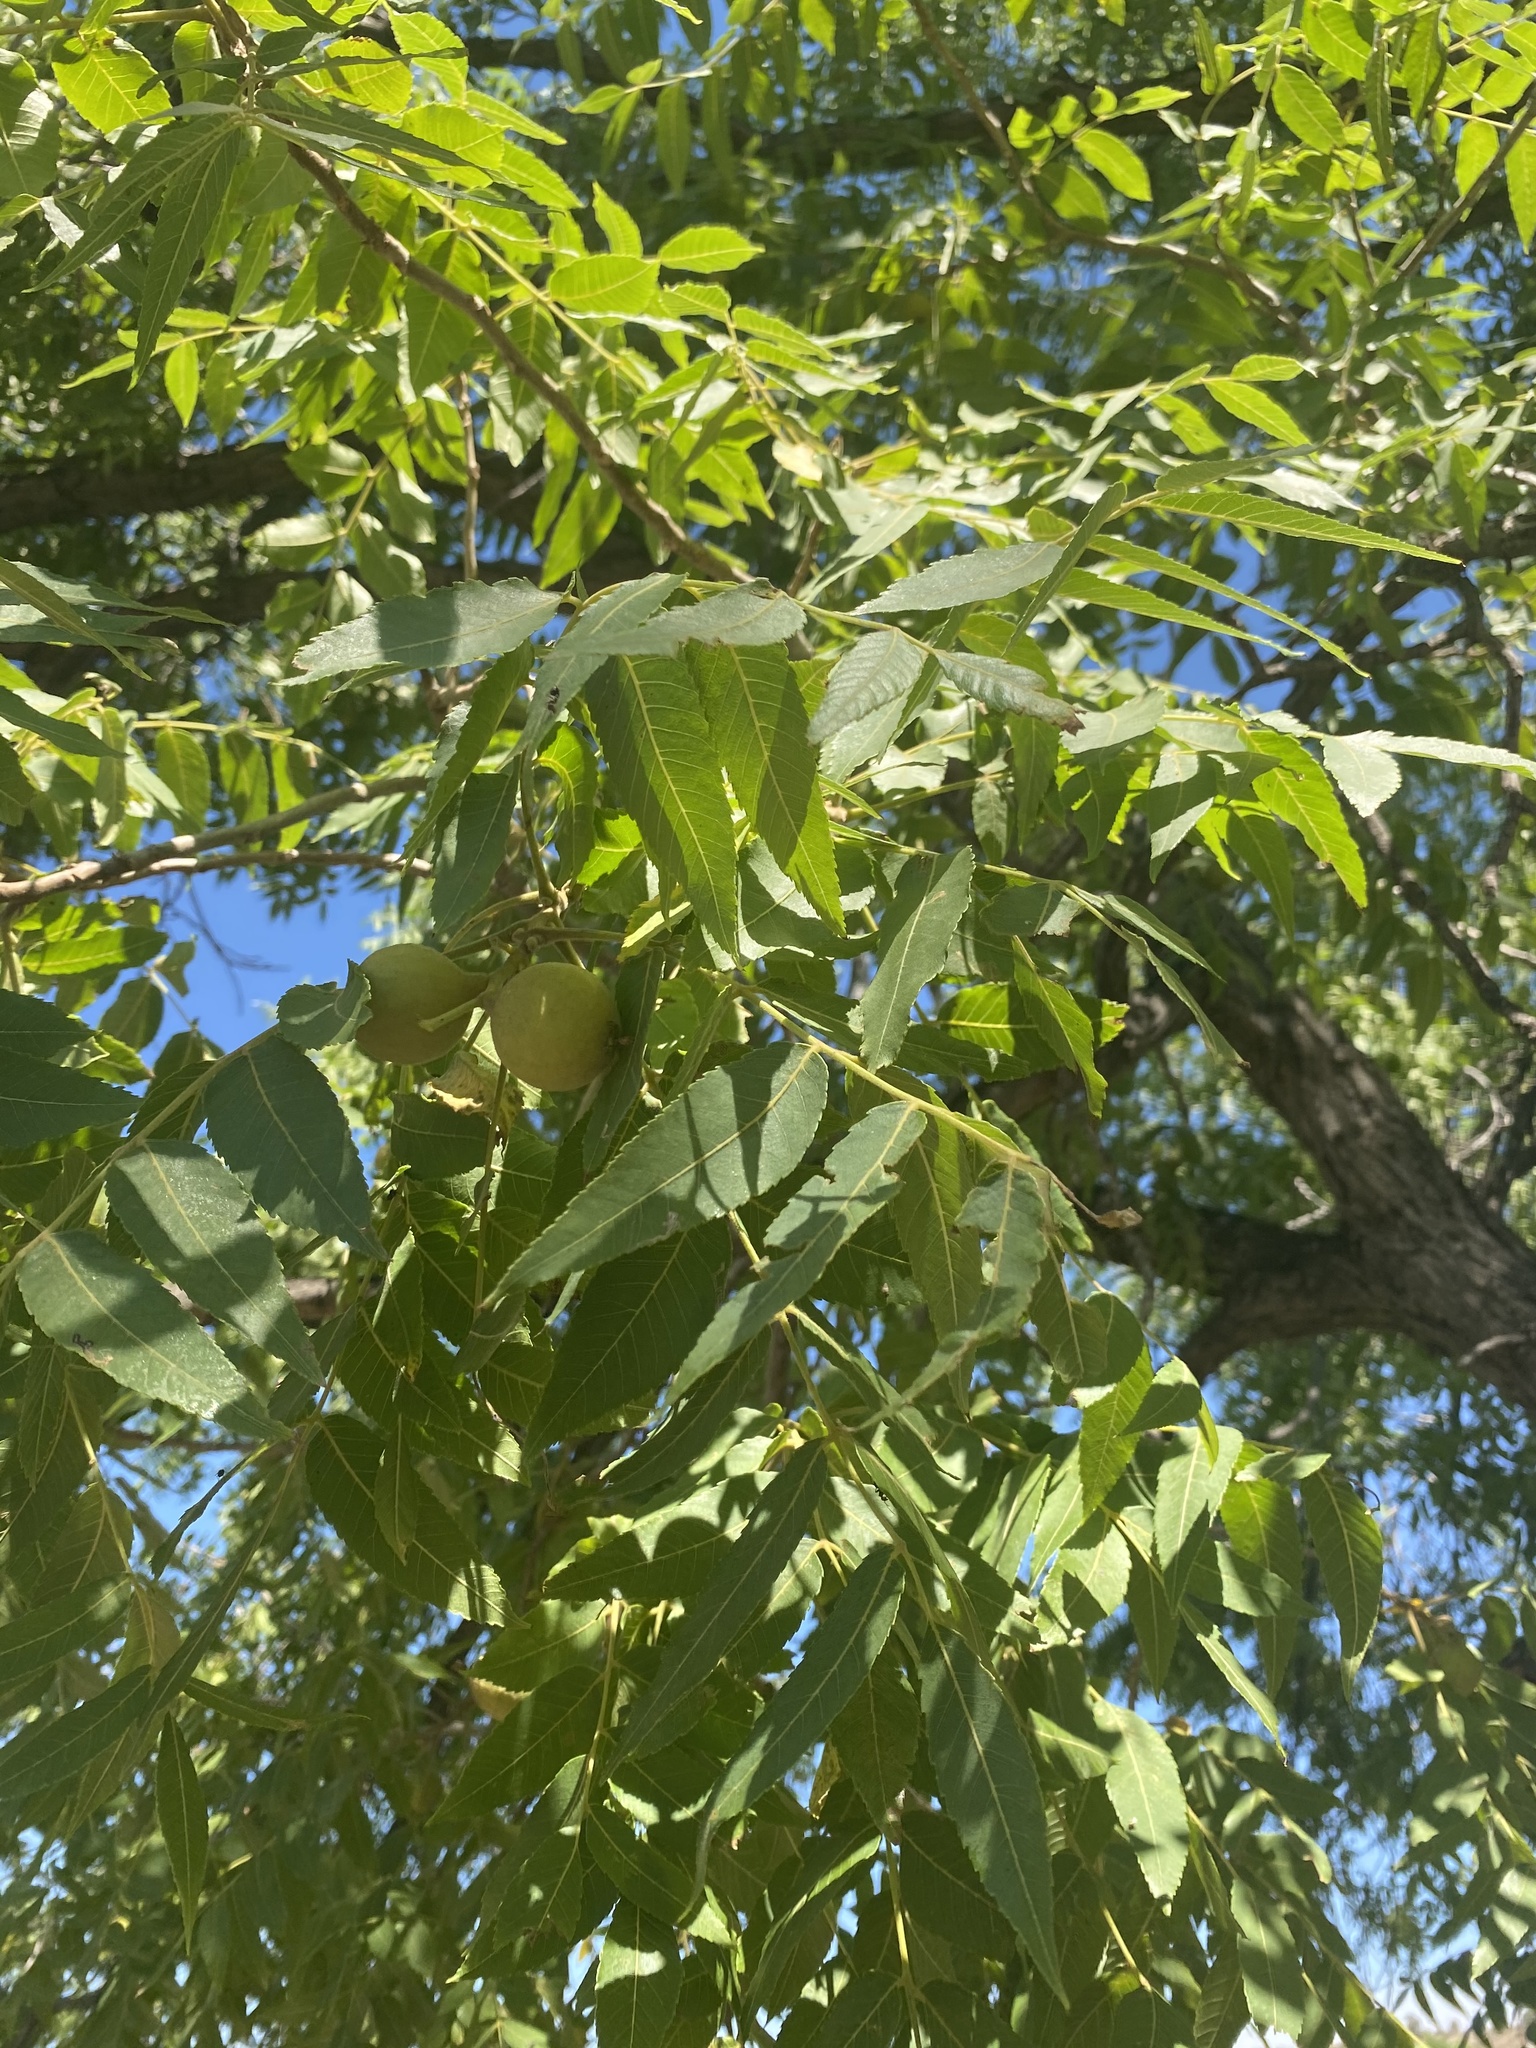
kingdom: Plantae
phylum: Tracheophyta
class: Magnoliopsida
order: Fagales
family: Juglandaceae
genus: Juglans
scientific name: Juglans major
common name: Arizona walnut
